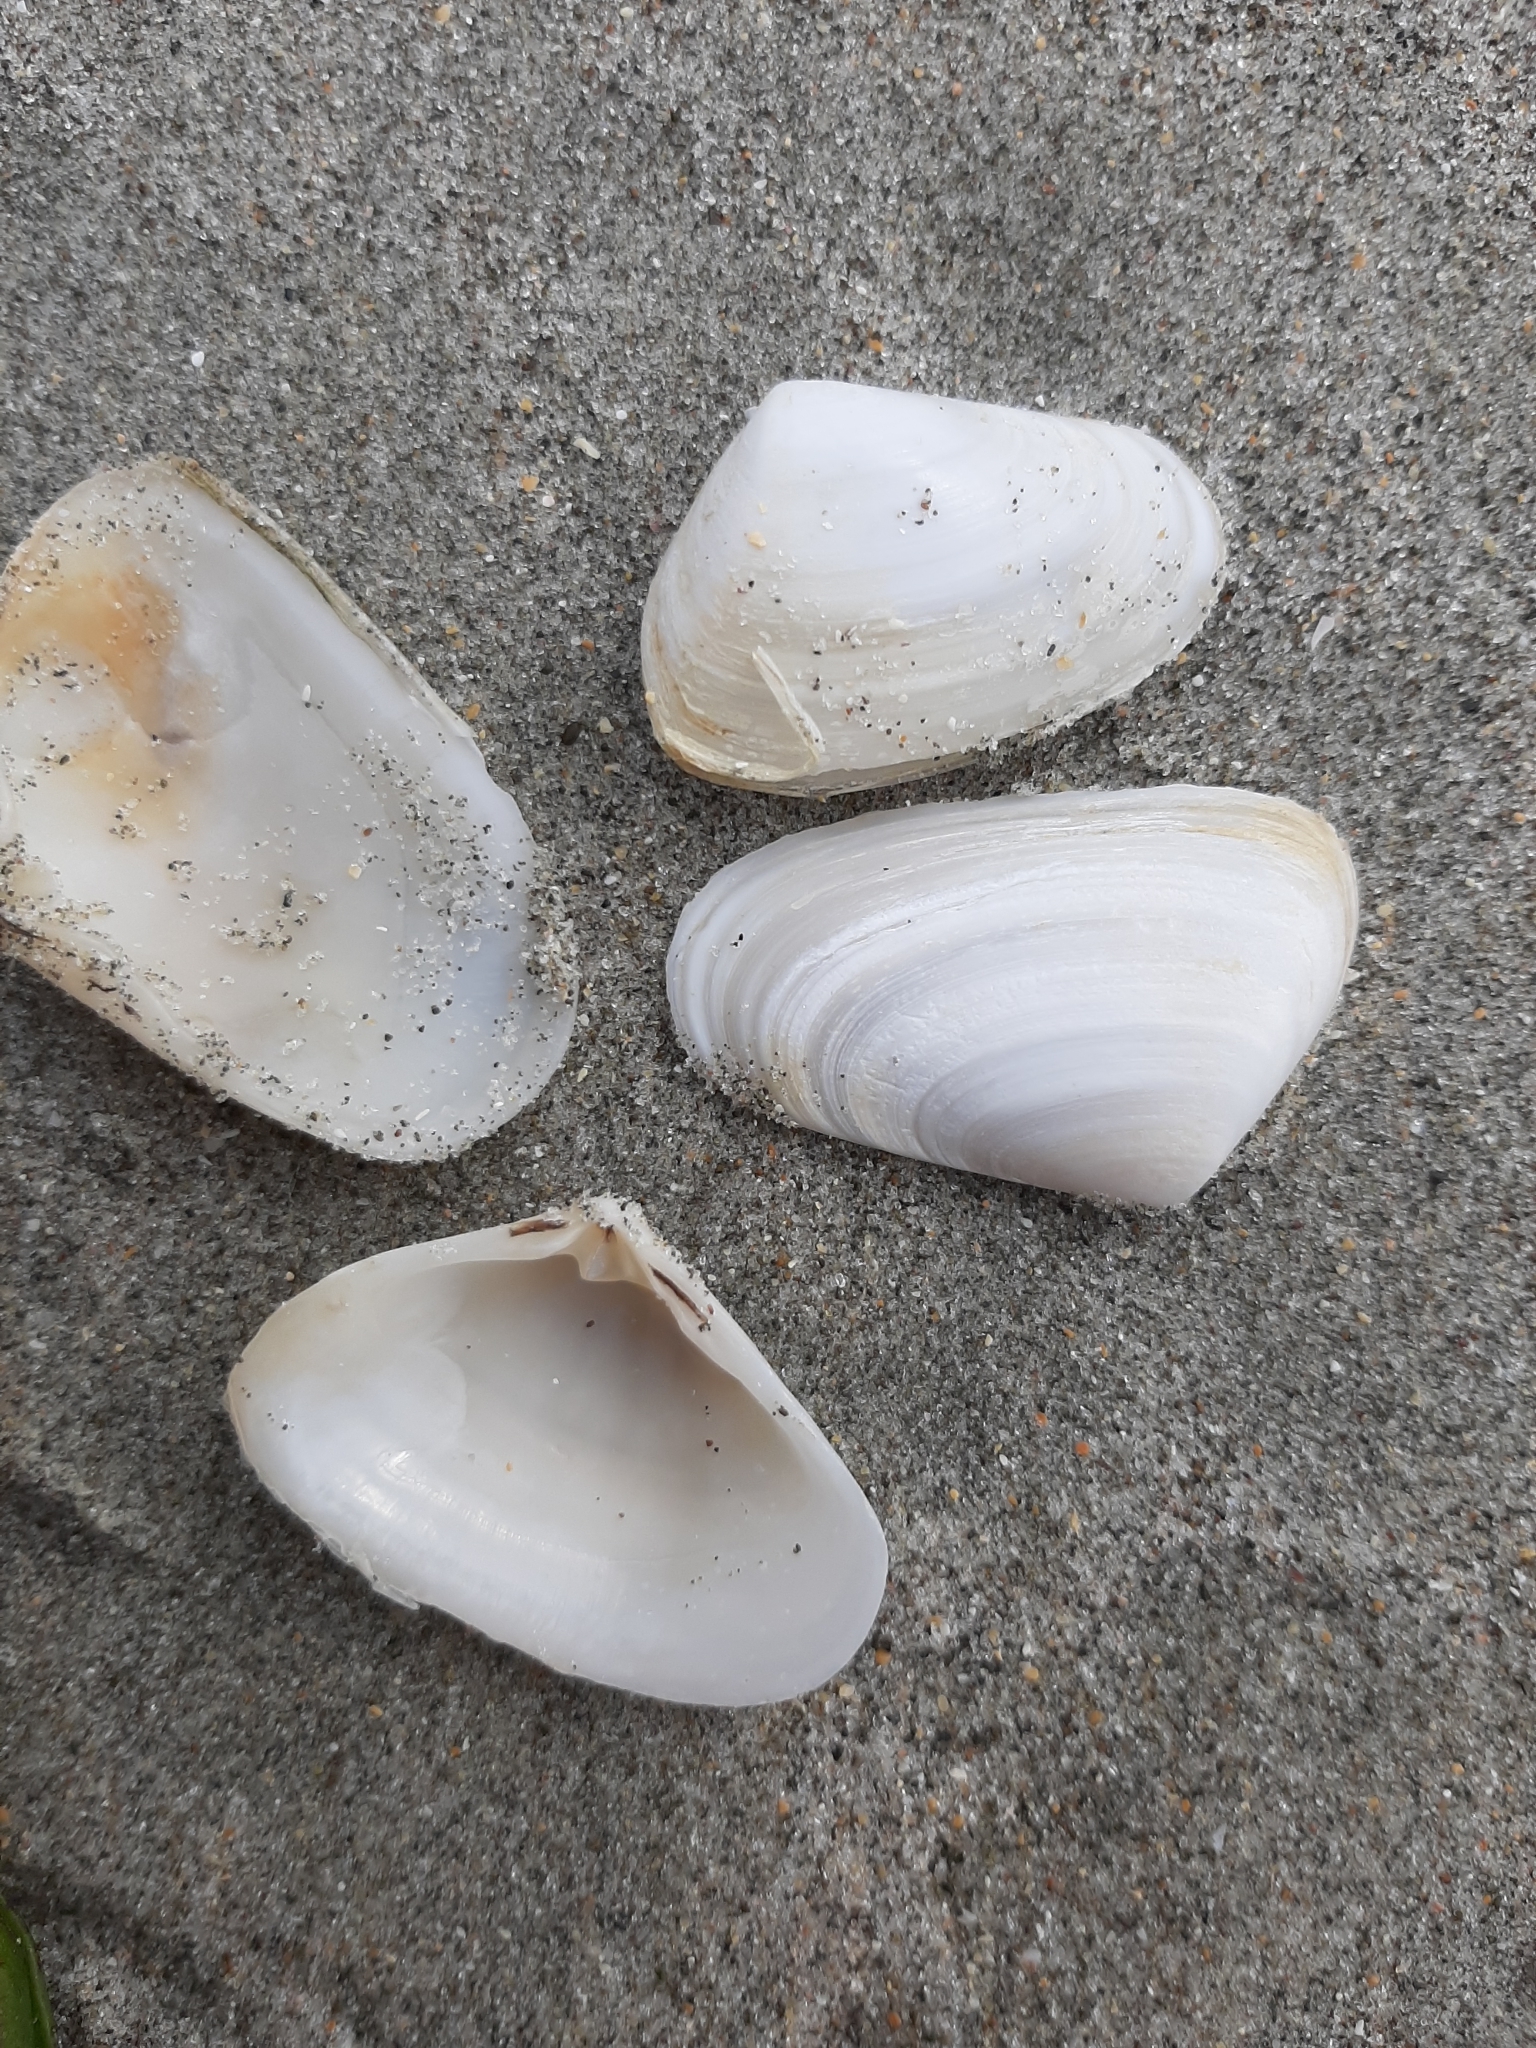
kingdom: Animalia
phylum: Mollusca
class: Bivalvia
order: Venerida
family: Mesodesmatidae
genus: Paphies
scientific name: Paphies subtriangulata
